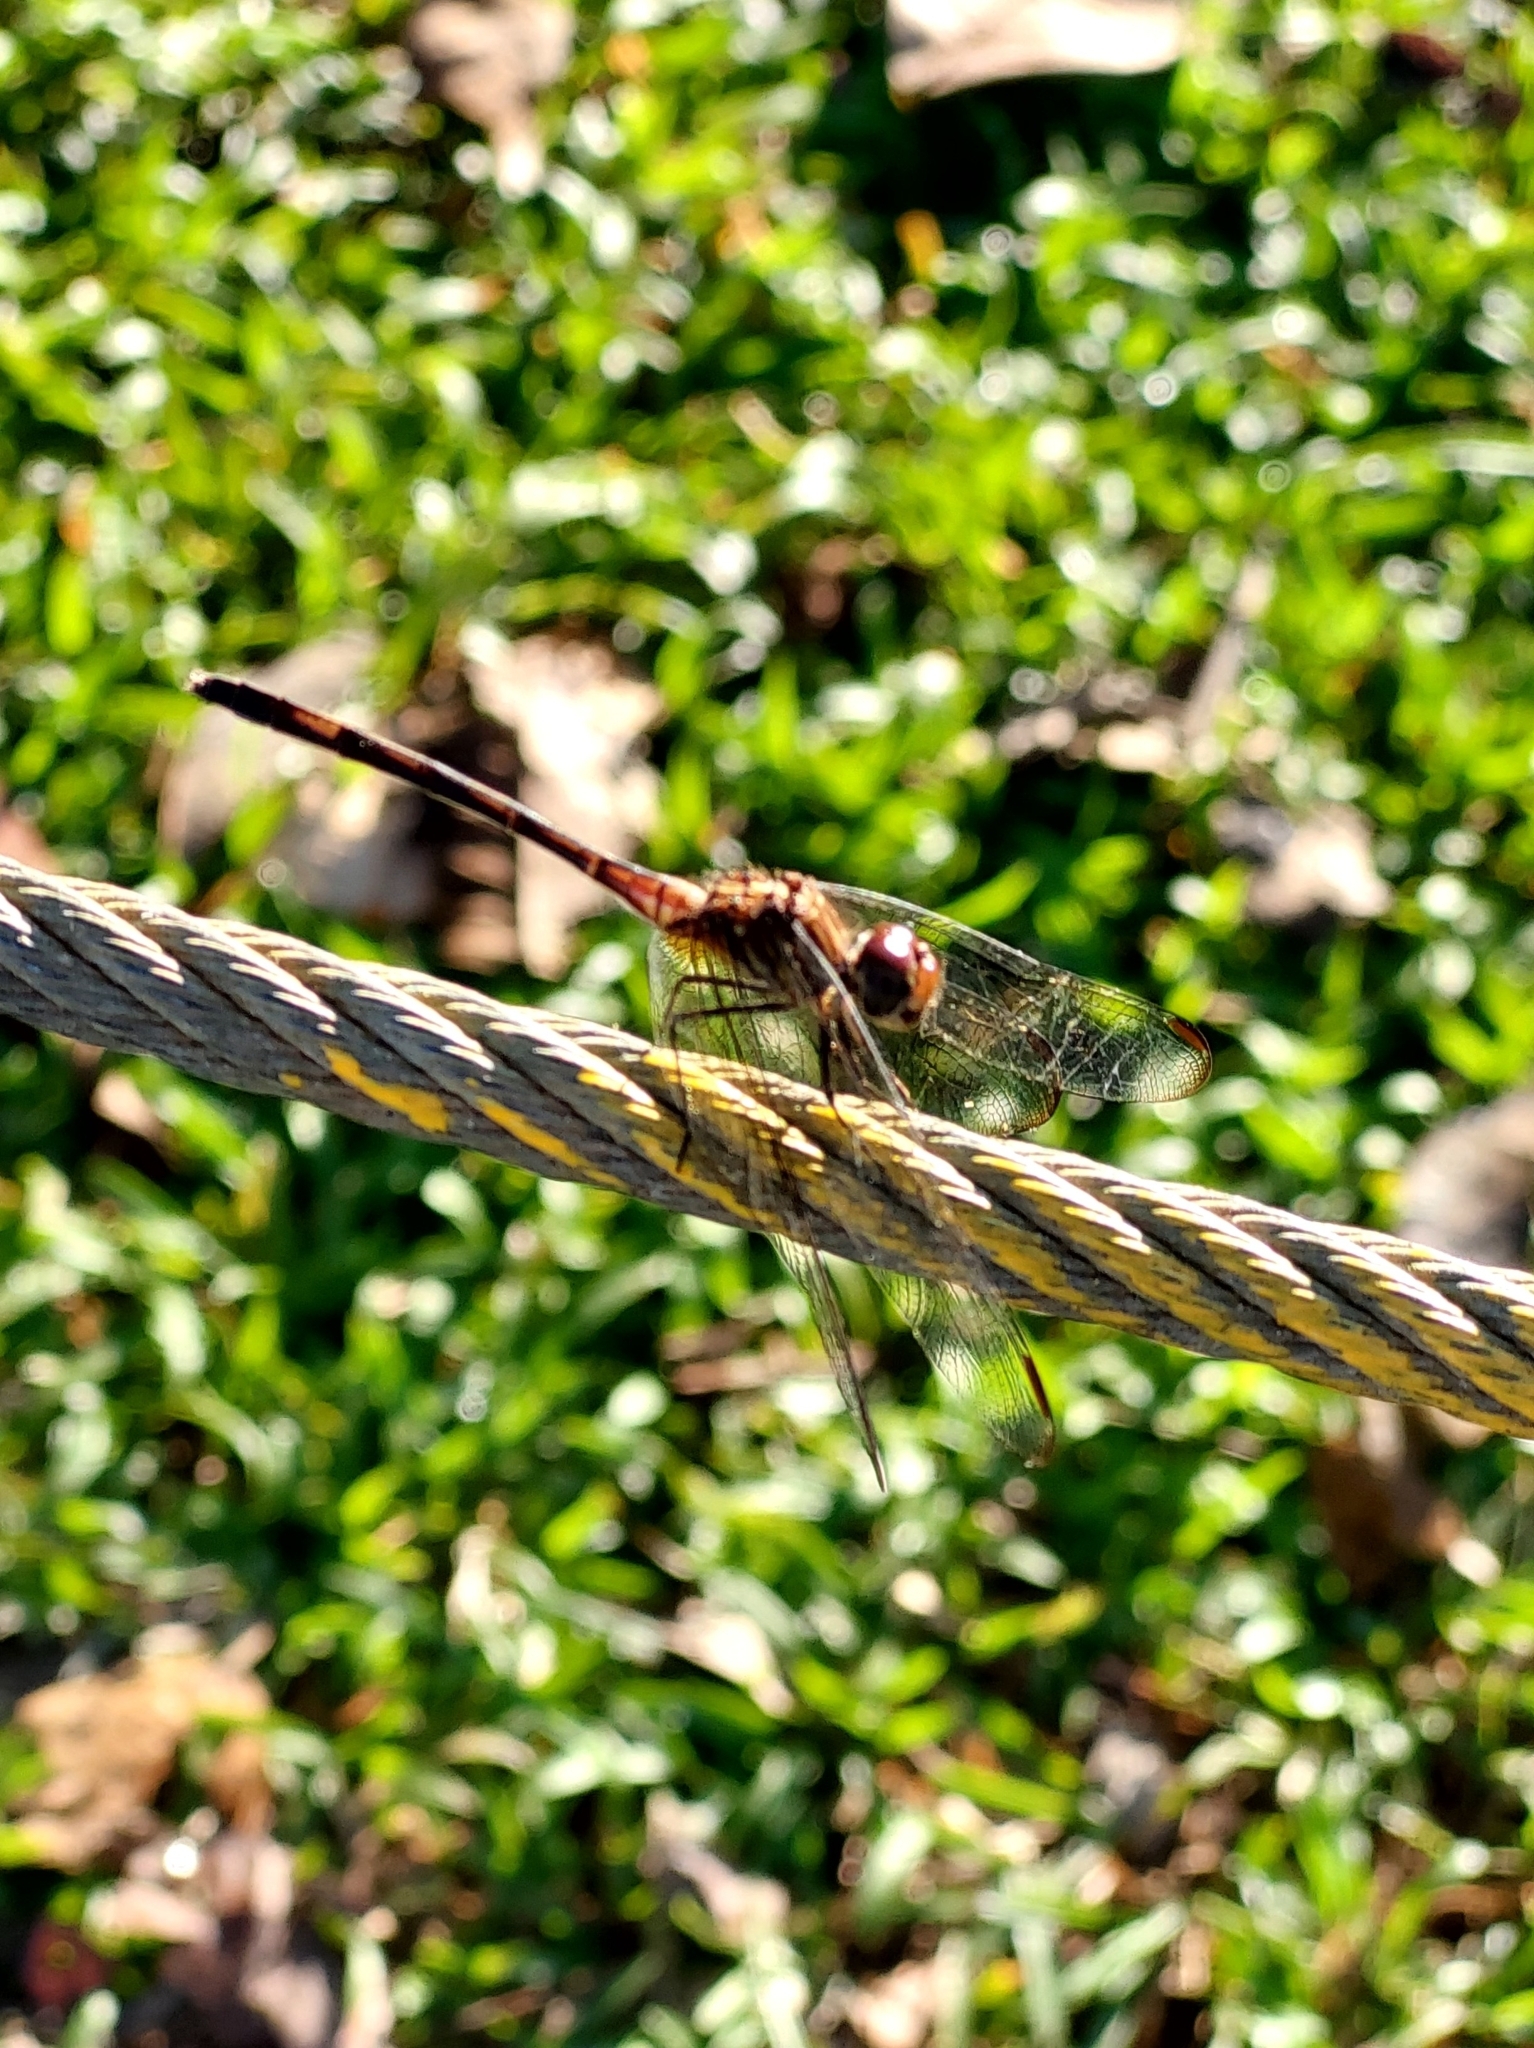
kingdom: Animalia
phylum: Arthropoda
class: Insecta
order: Odonata
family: Libellulidae
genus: Dythemis
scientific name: Dythemis sterilis
